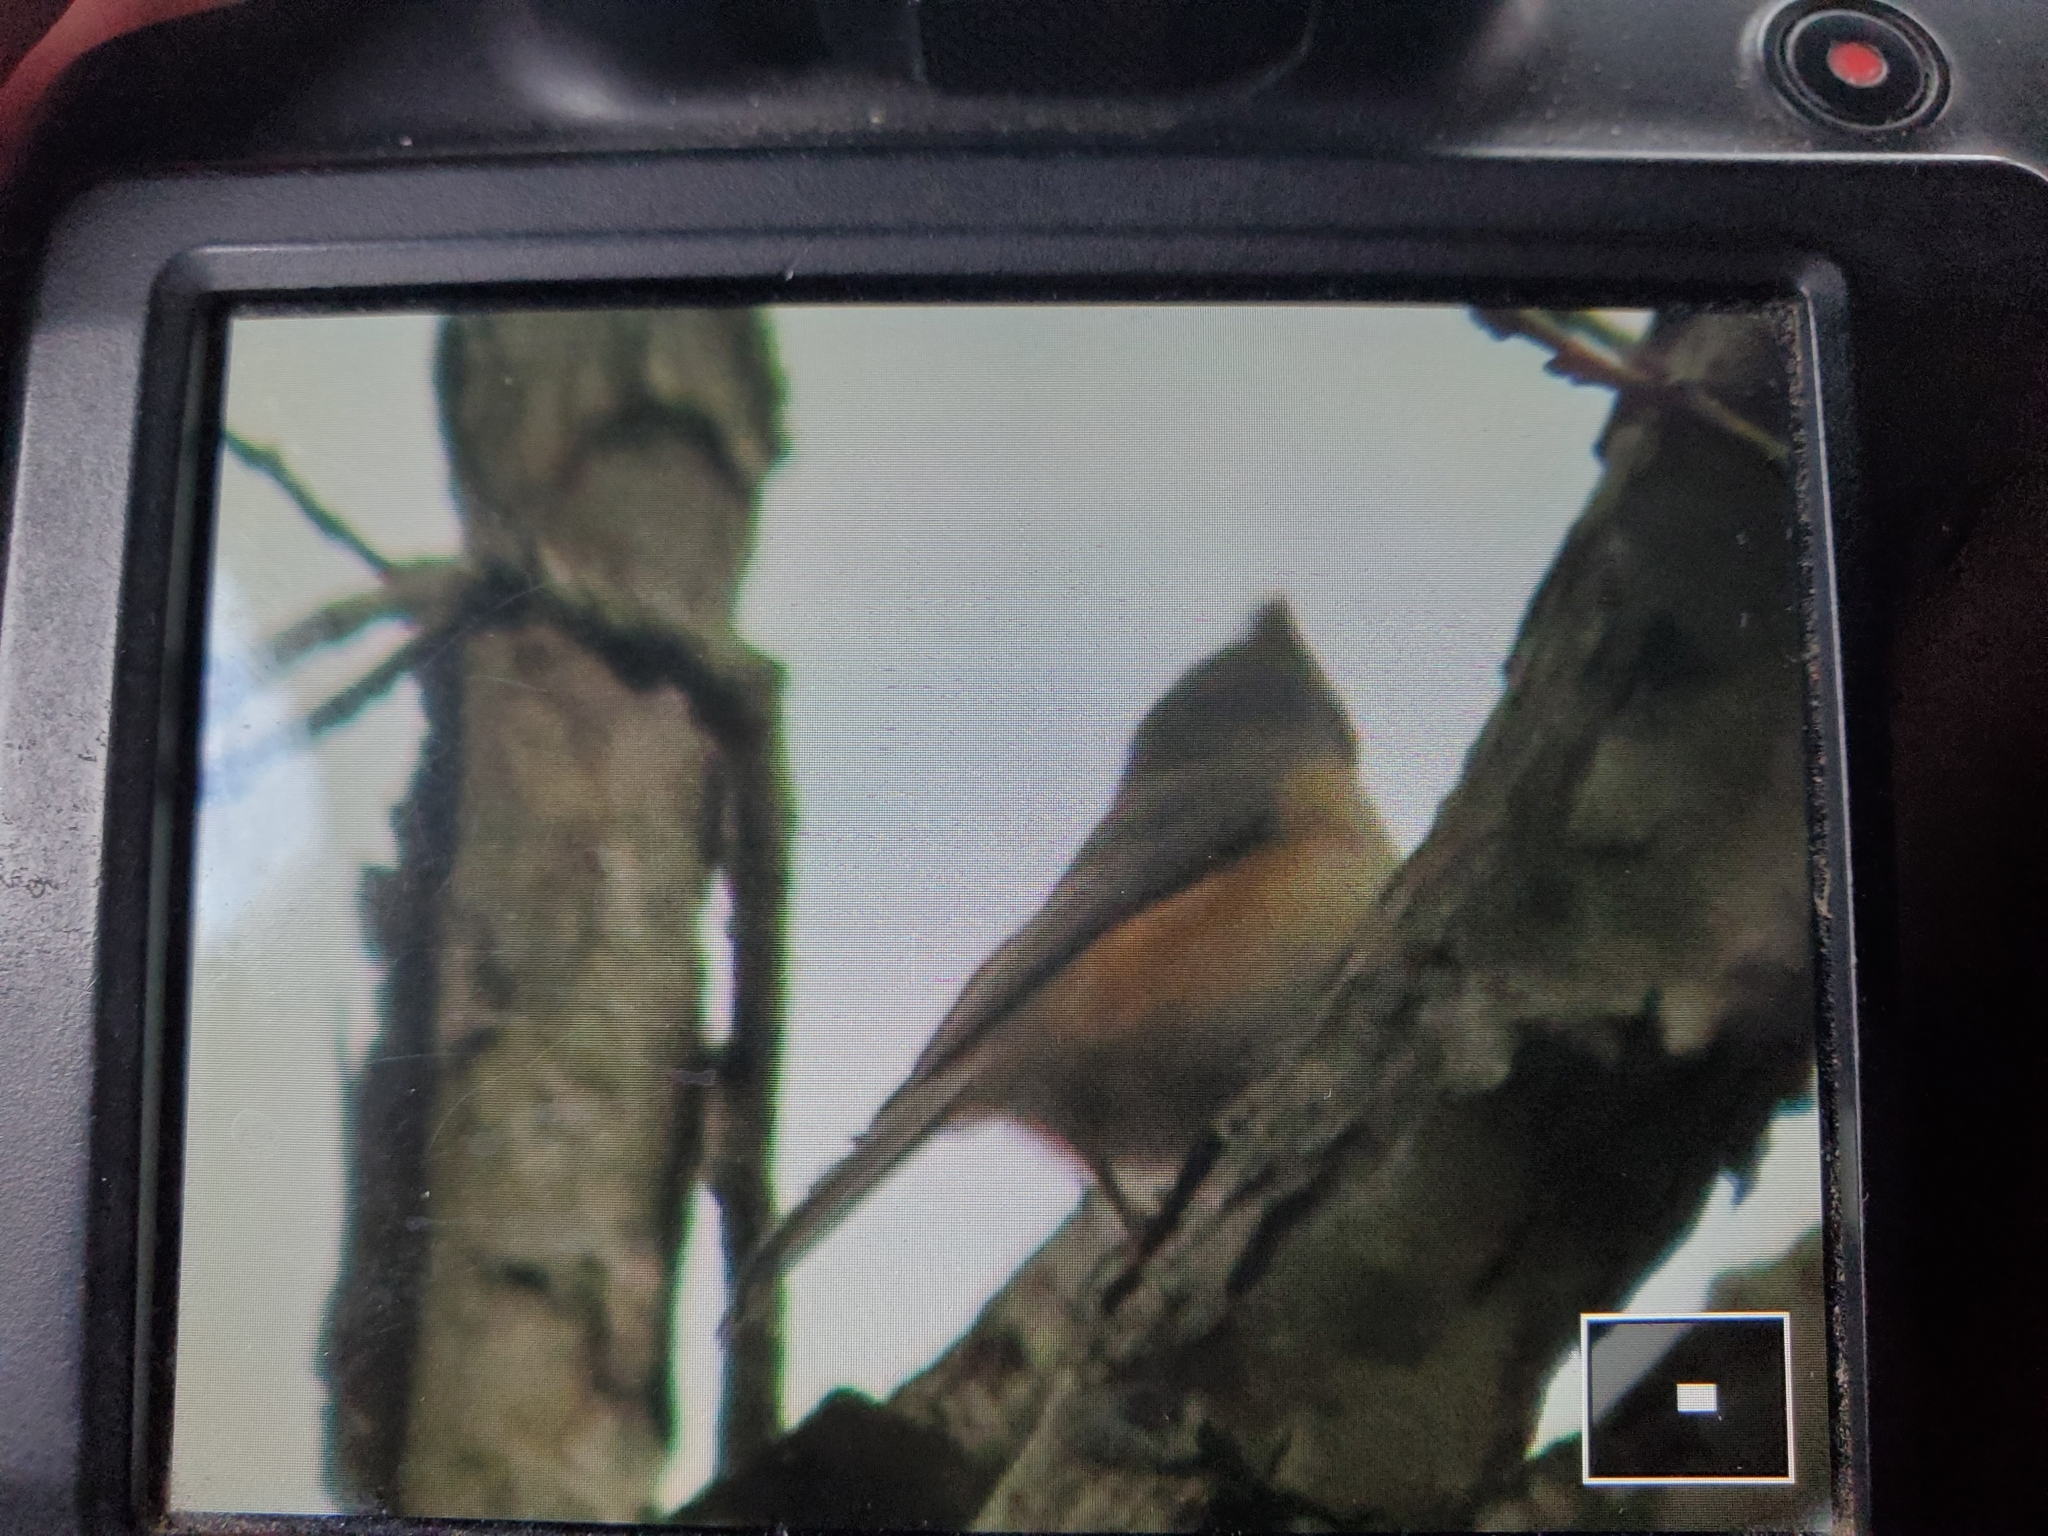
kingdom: Animalia
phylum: Chordata
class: Aves
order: Passeriformes
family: Paridae
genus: Baeolophus
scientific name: Baeolophus bicolor
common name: Tufted titmouse
